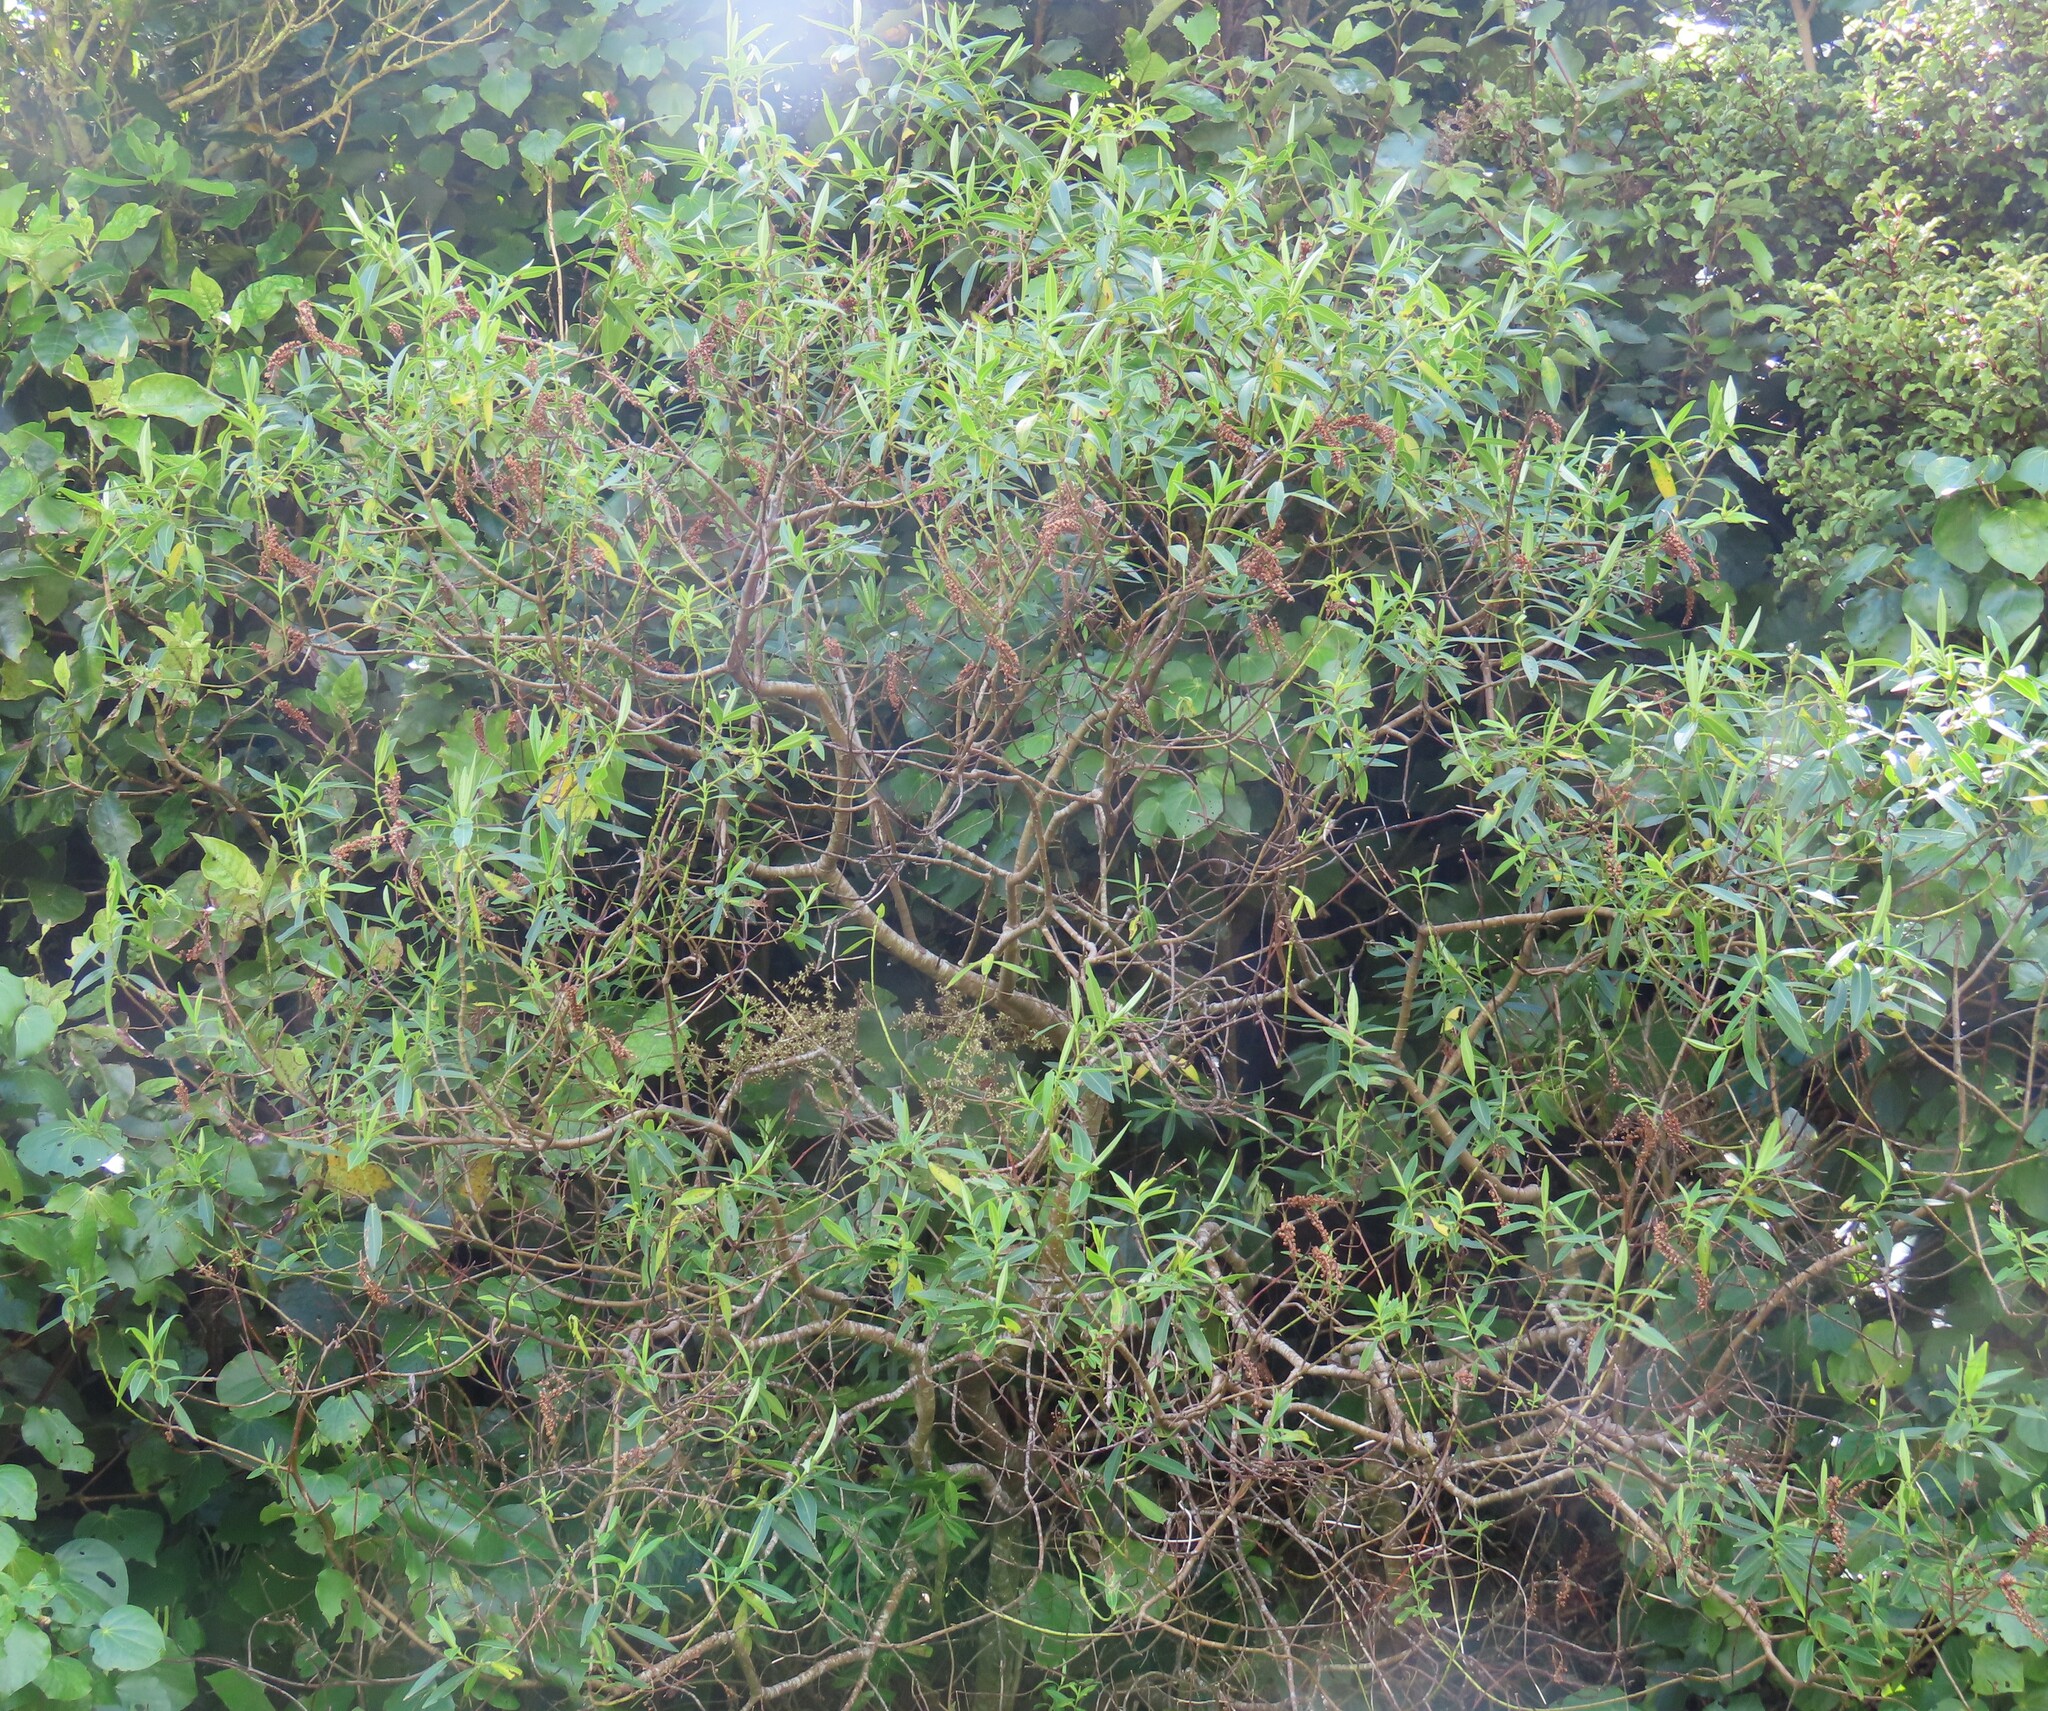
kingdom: Plantae
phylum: Tracheophyta
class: Magnoliopsida
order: Lamiales
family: Plantaginaceae
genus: Veronica
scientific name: Veronica stricta
